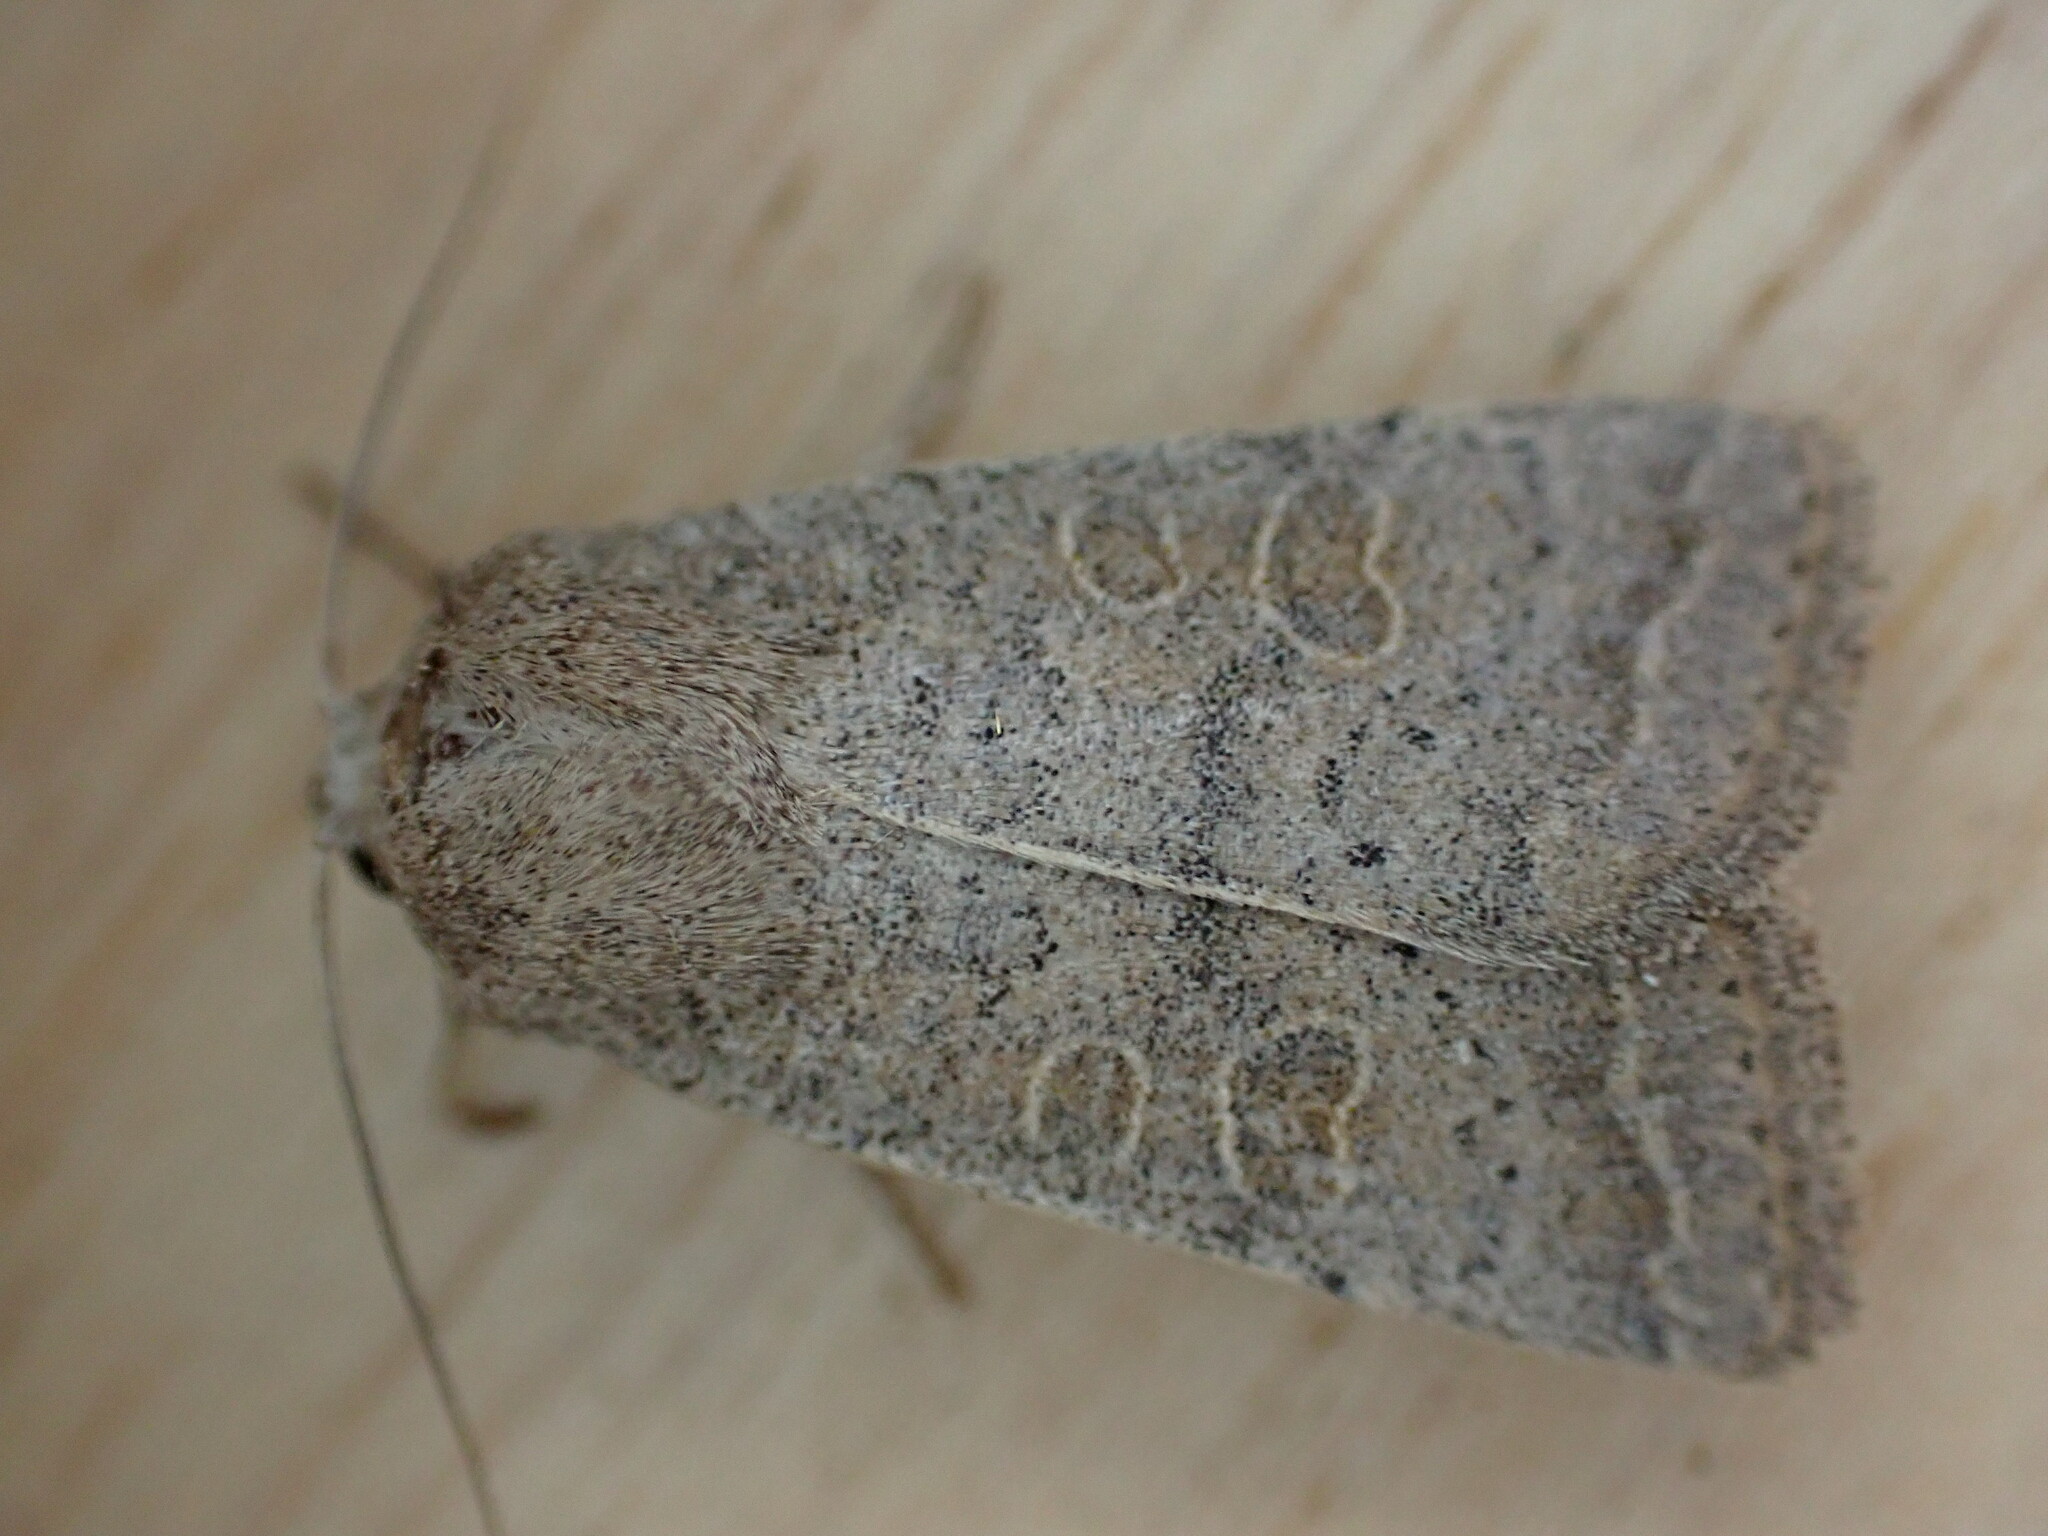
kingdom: Animalia
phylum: Arthropoda
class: Insecta
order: Lepidoptera
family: Noctuidae
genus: Hoplodrina
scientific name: Hoplodrina ambigua
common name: Vine's rustic
